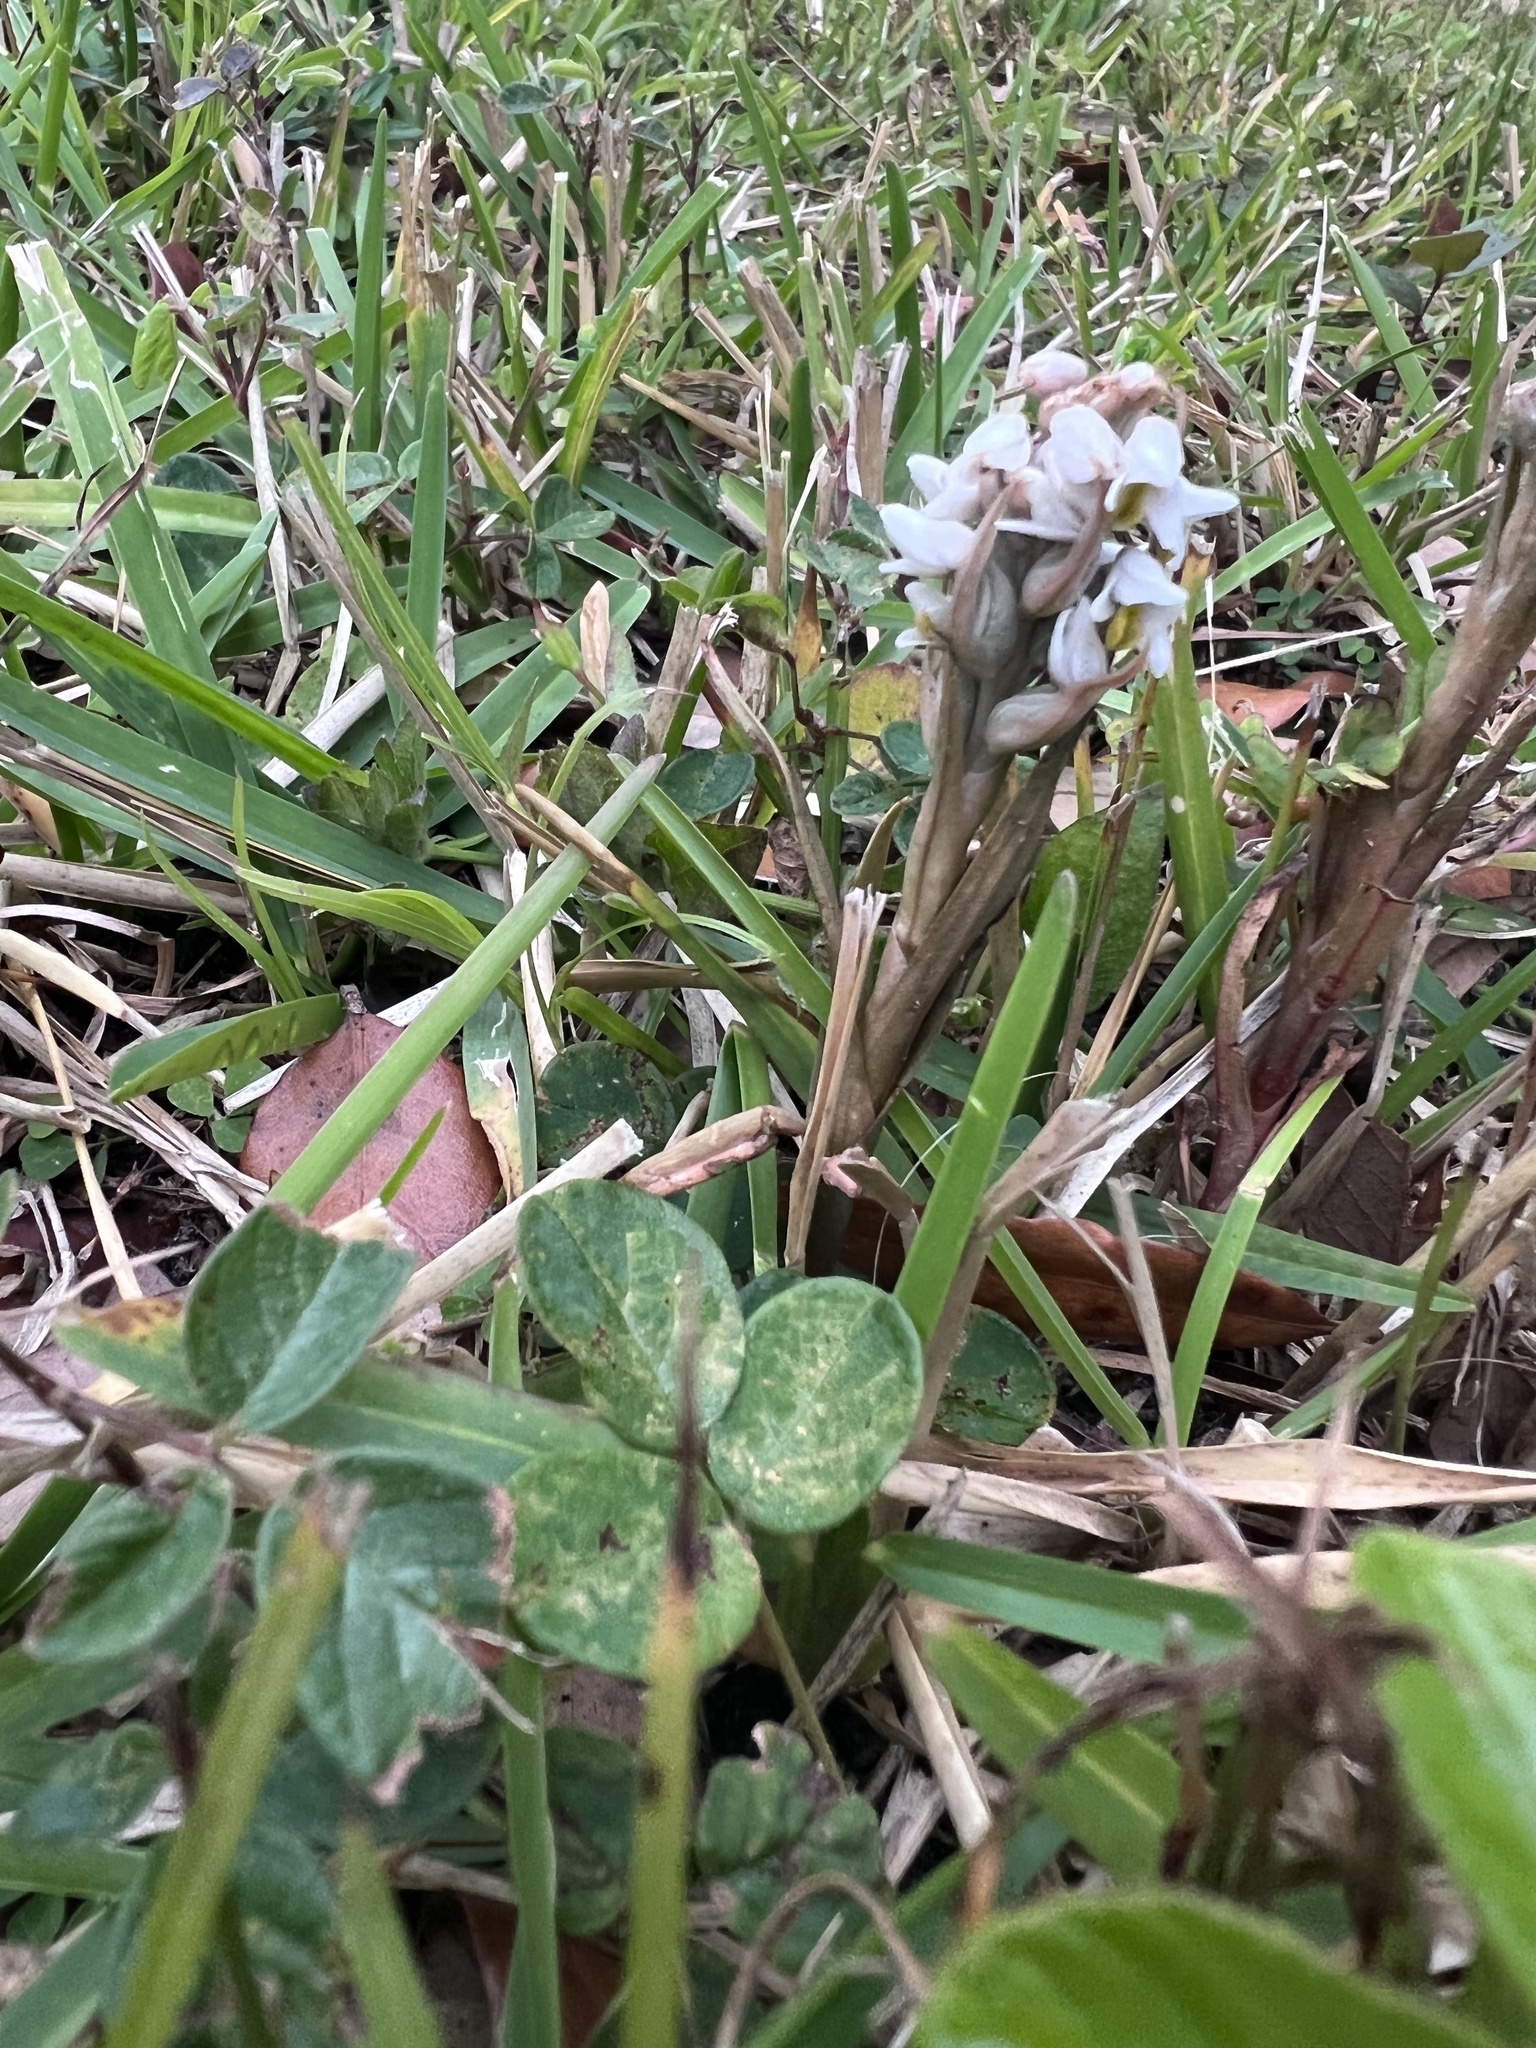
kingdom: Plantae
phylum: Tracheophyta
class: Liliopsida
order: Asparagales
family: Orchidaceae
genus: Zeuxine
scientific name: Zeuxine strateumatica
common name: Soldier's orchid
